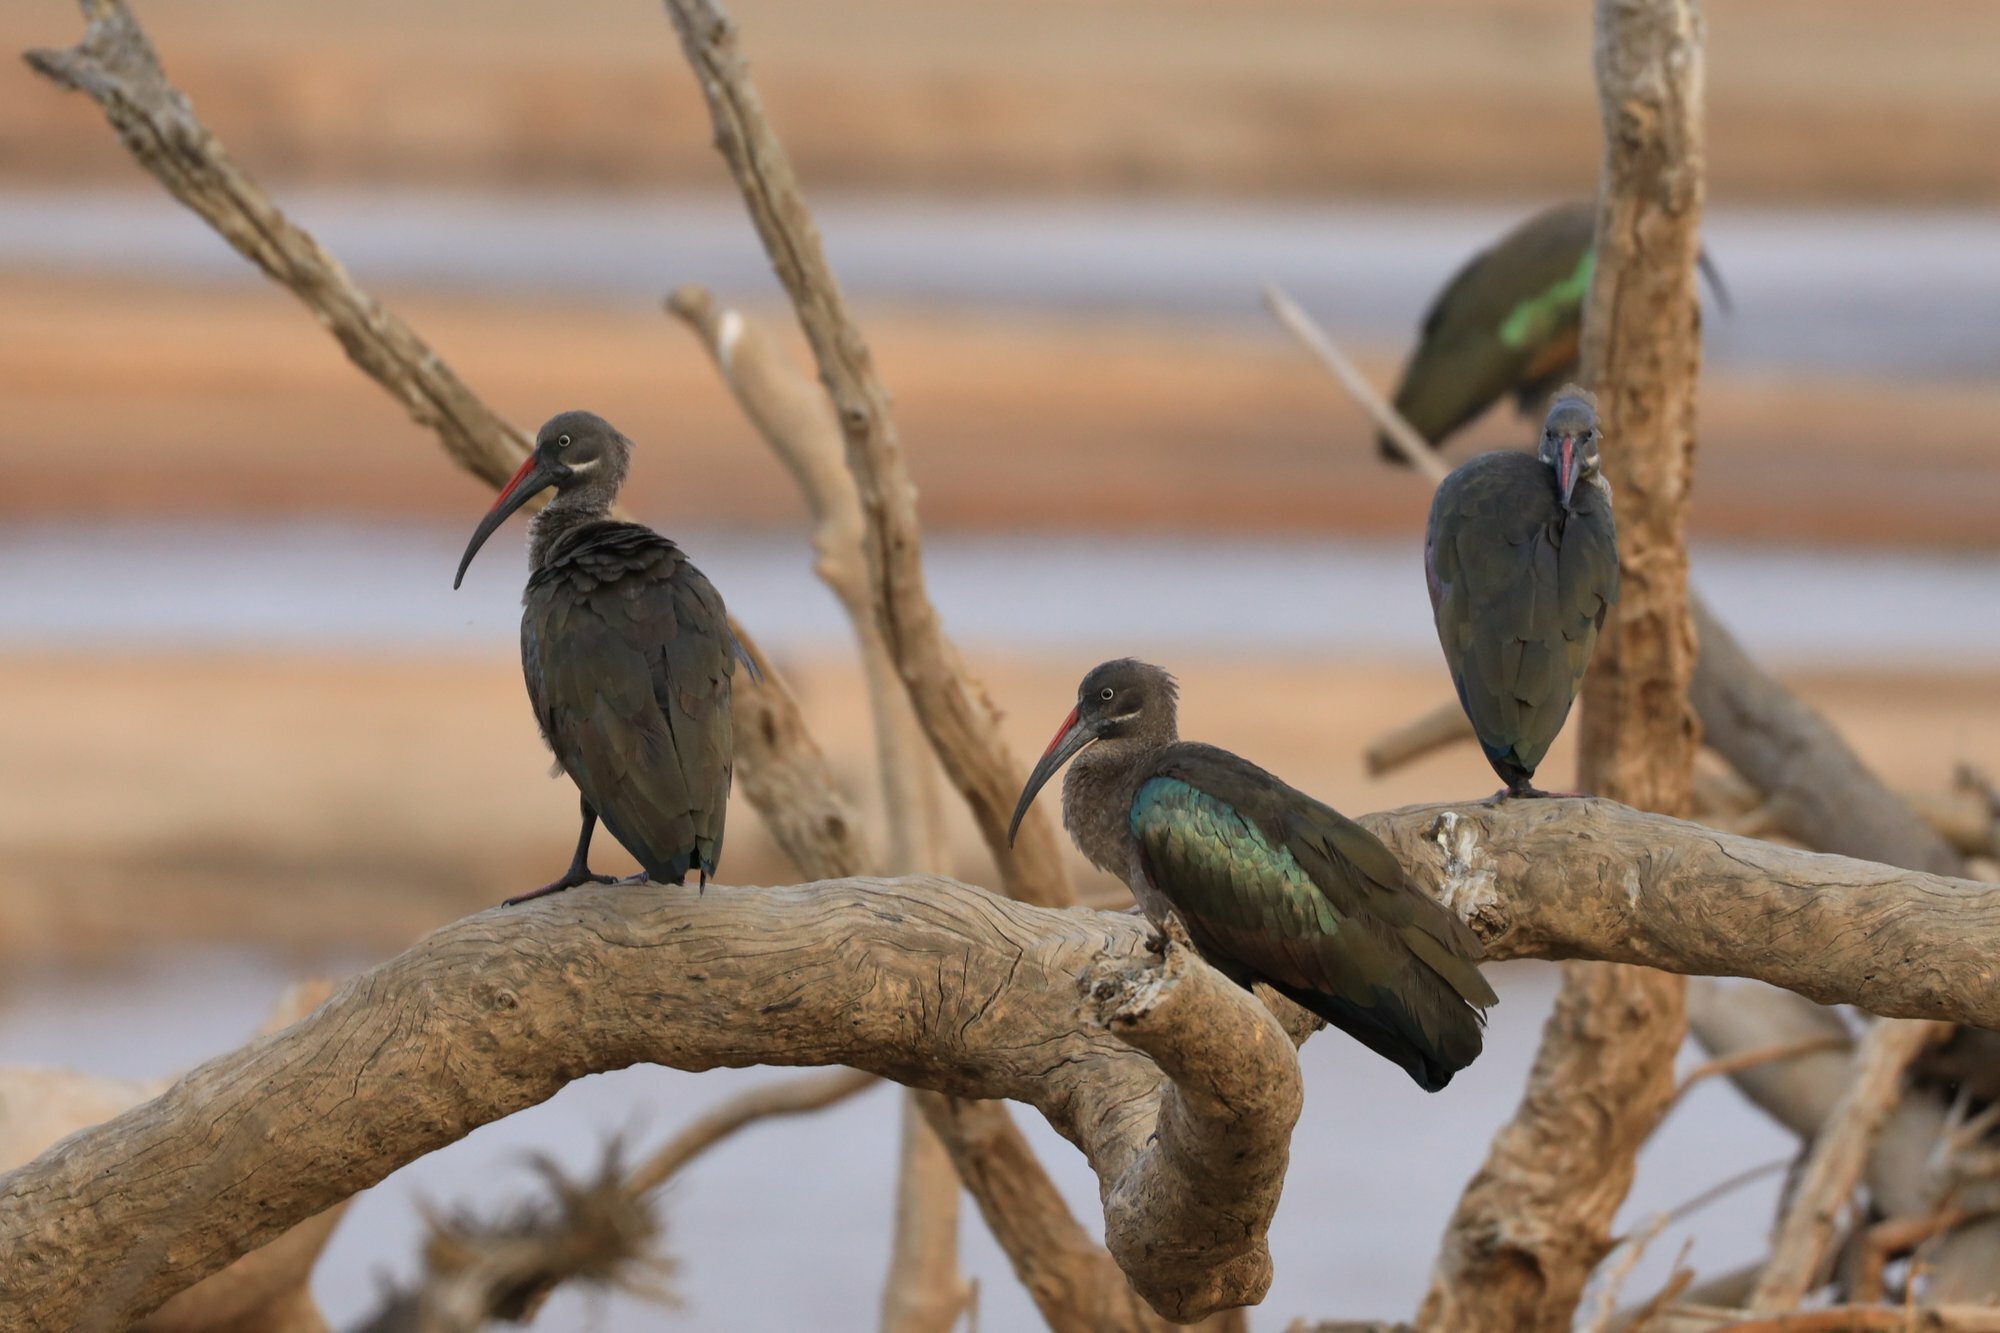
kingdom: Animalia
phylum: Chordata
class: Aves
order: Pelecaniformes
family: Threskiornithidae
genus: Bostrychia
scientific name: Bostrychia hagedash
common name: Hadada ibis
